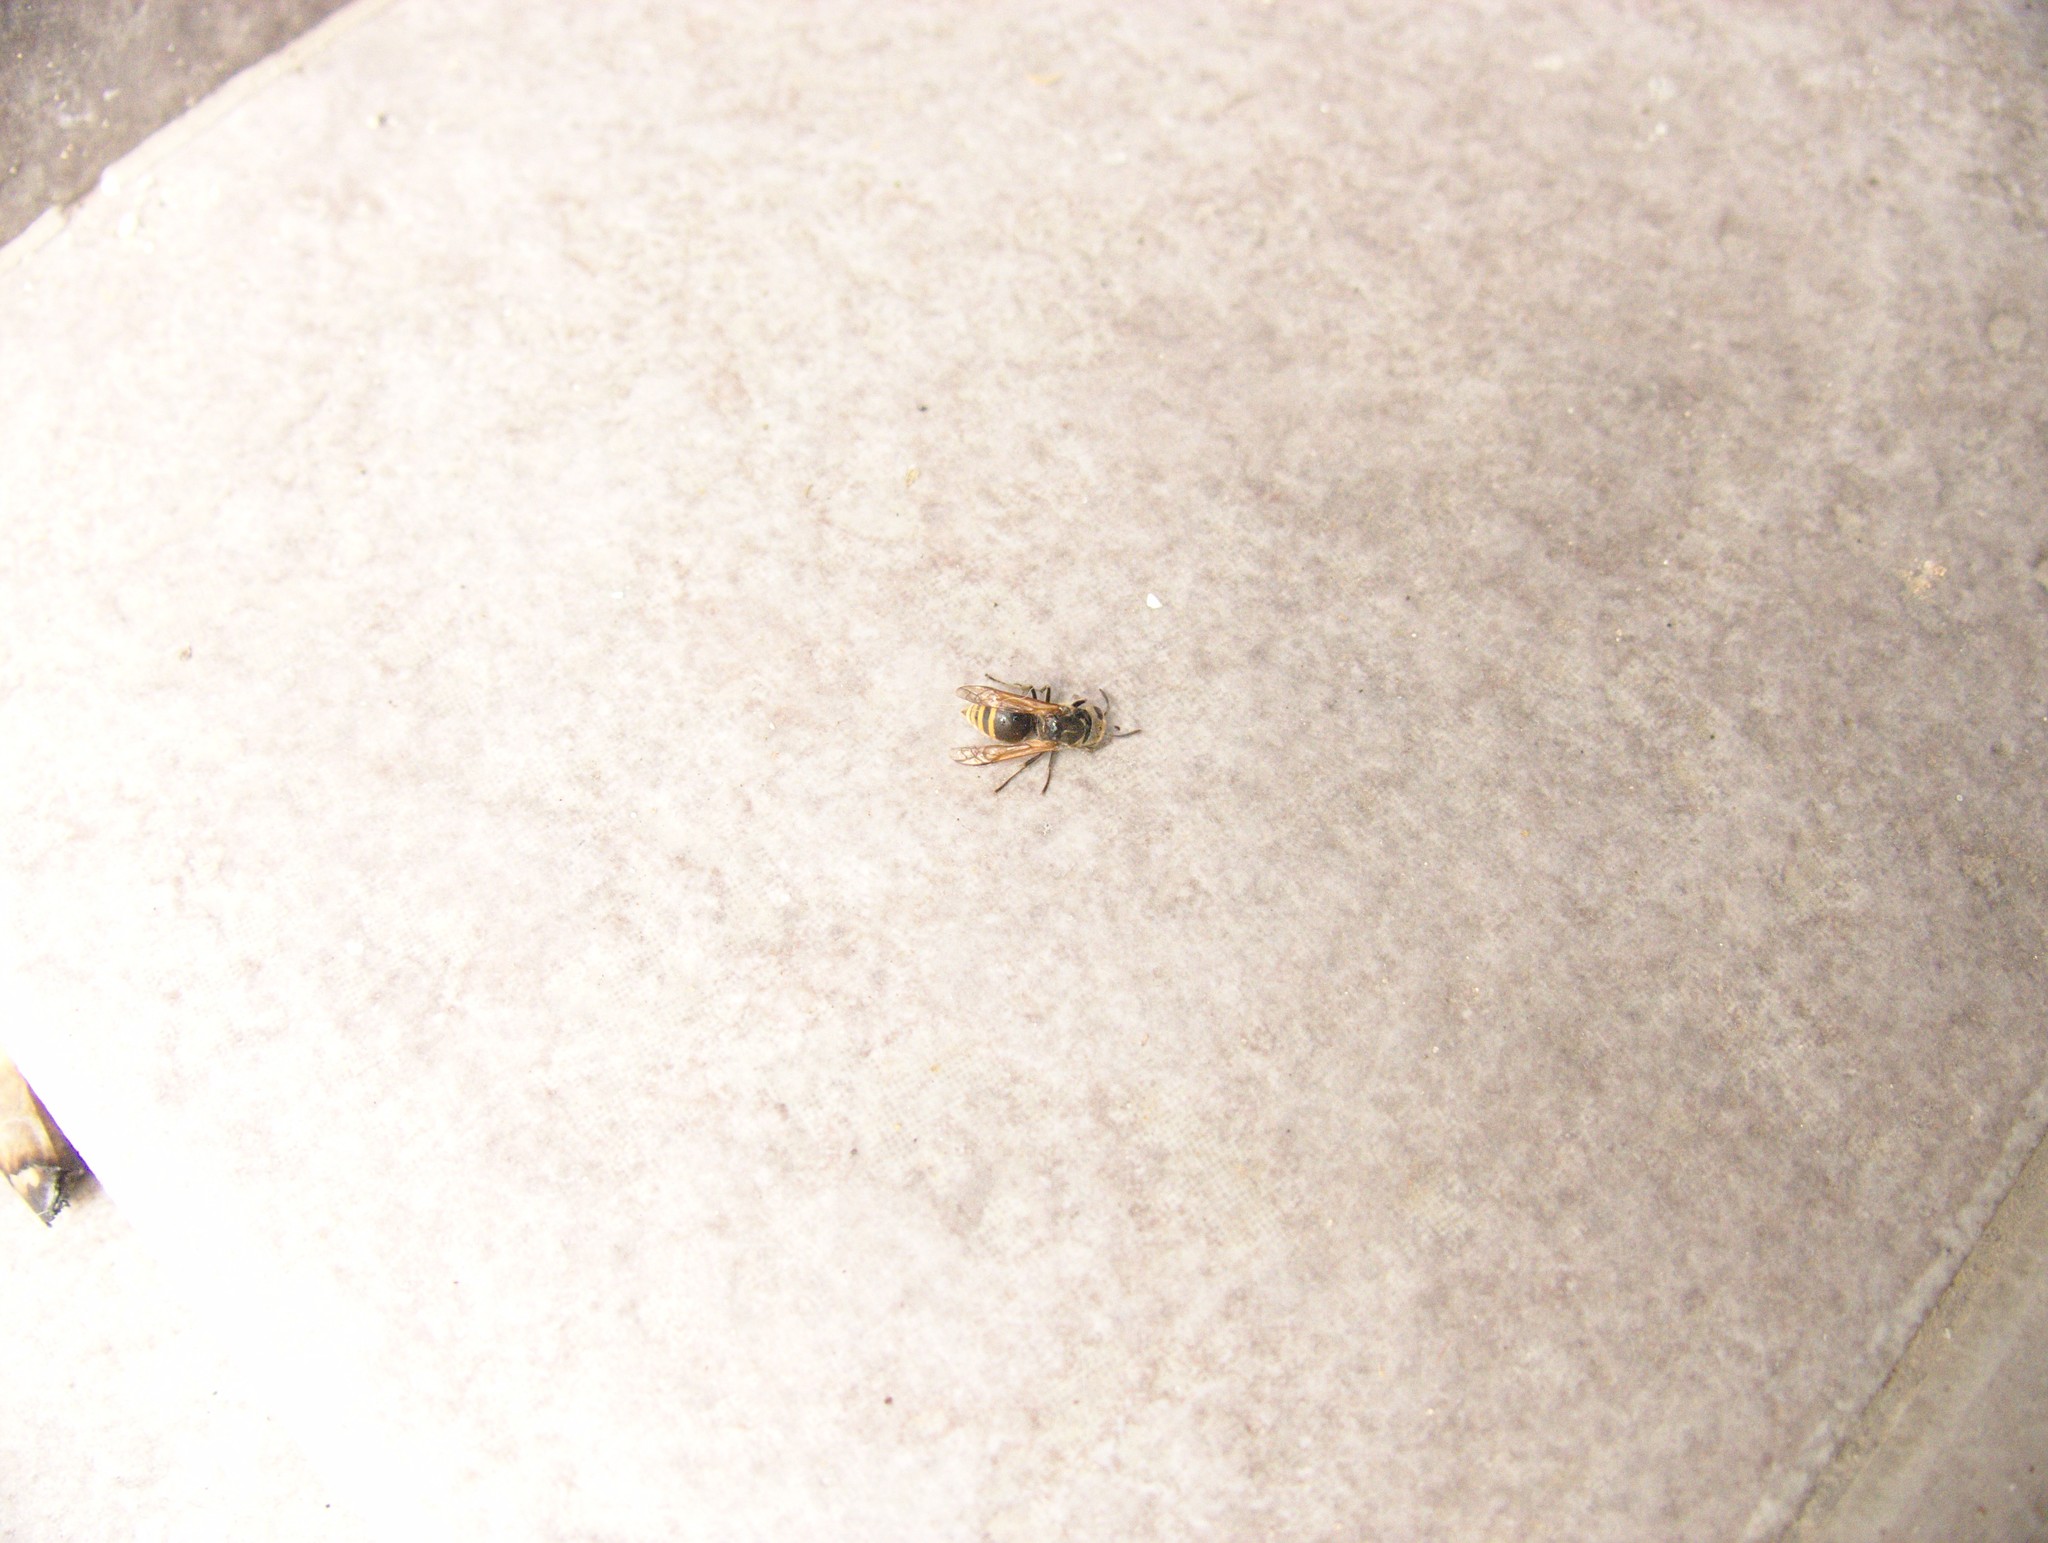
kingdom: Animalia
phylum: Arthropoda
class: Insecta
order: Hymenoptera
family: Vespidae
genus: Brachygastra
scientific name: Brachygastra lecheguana
